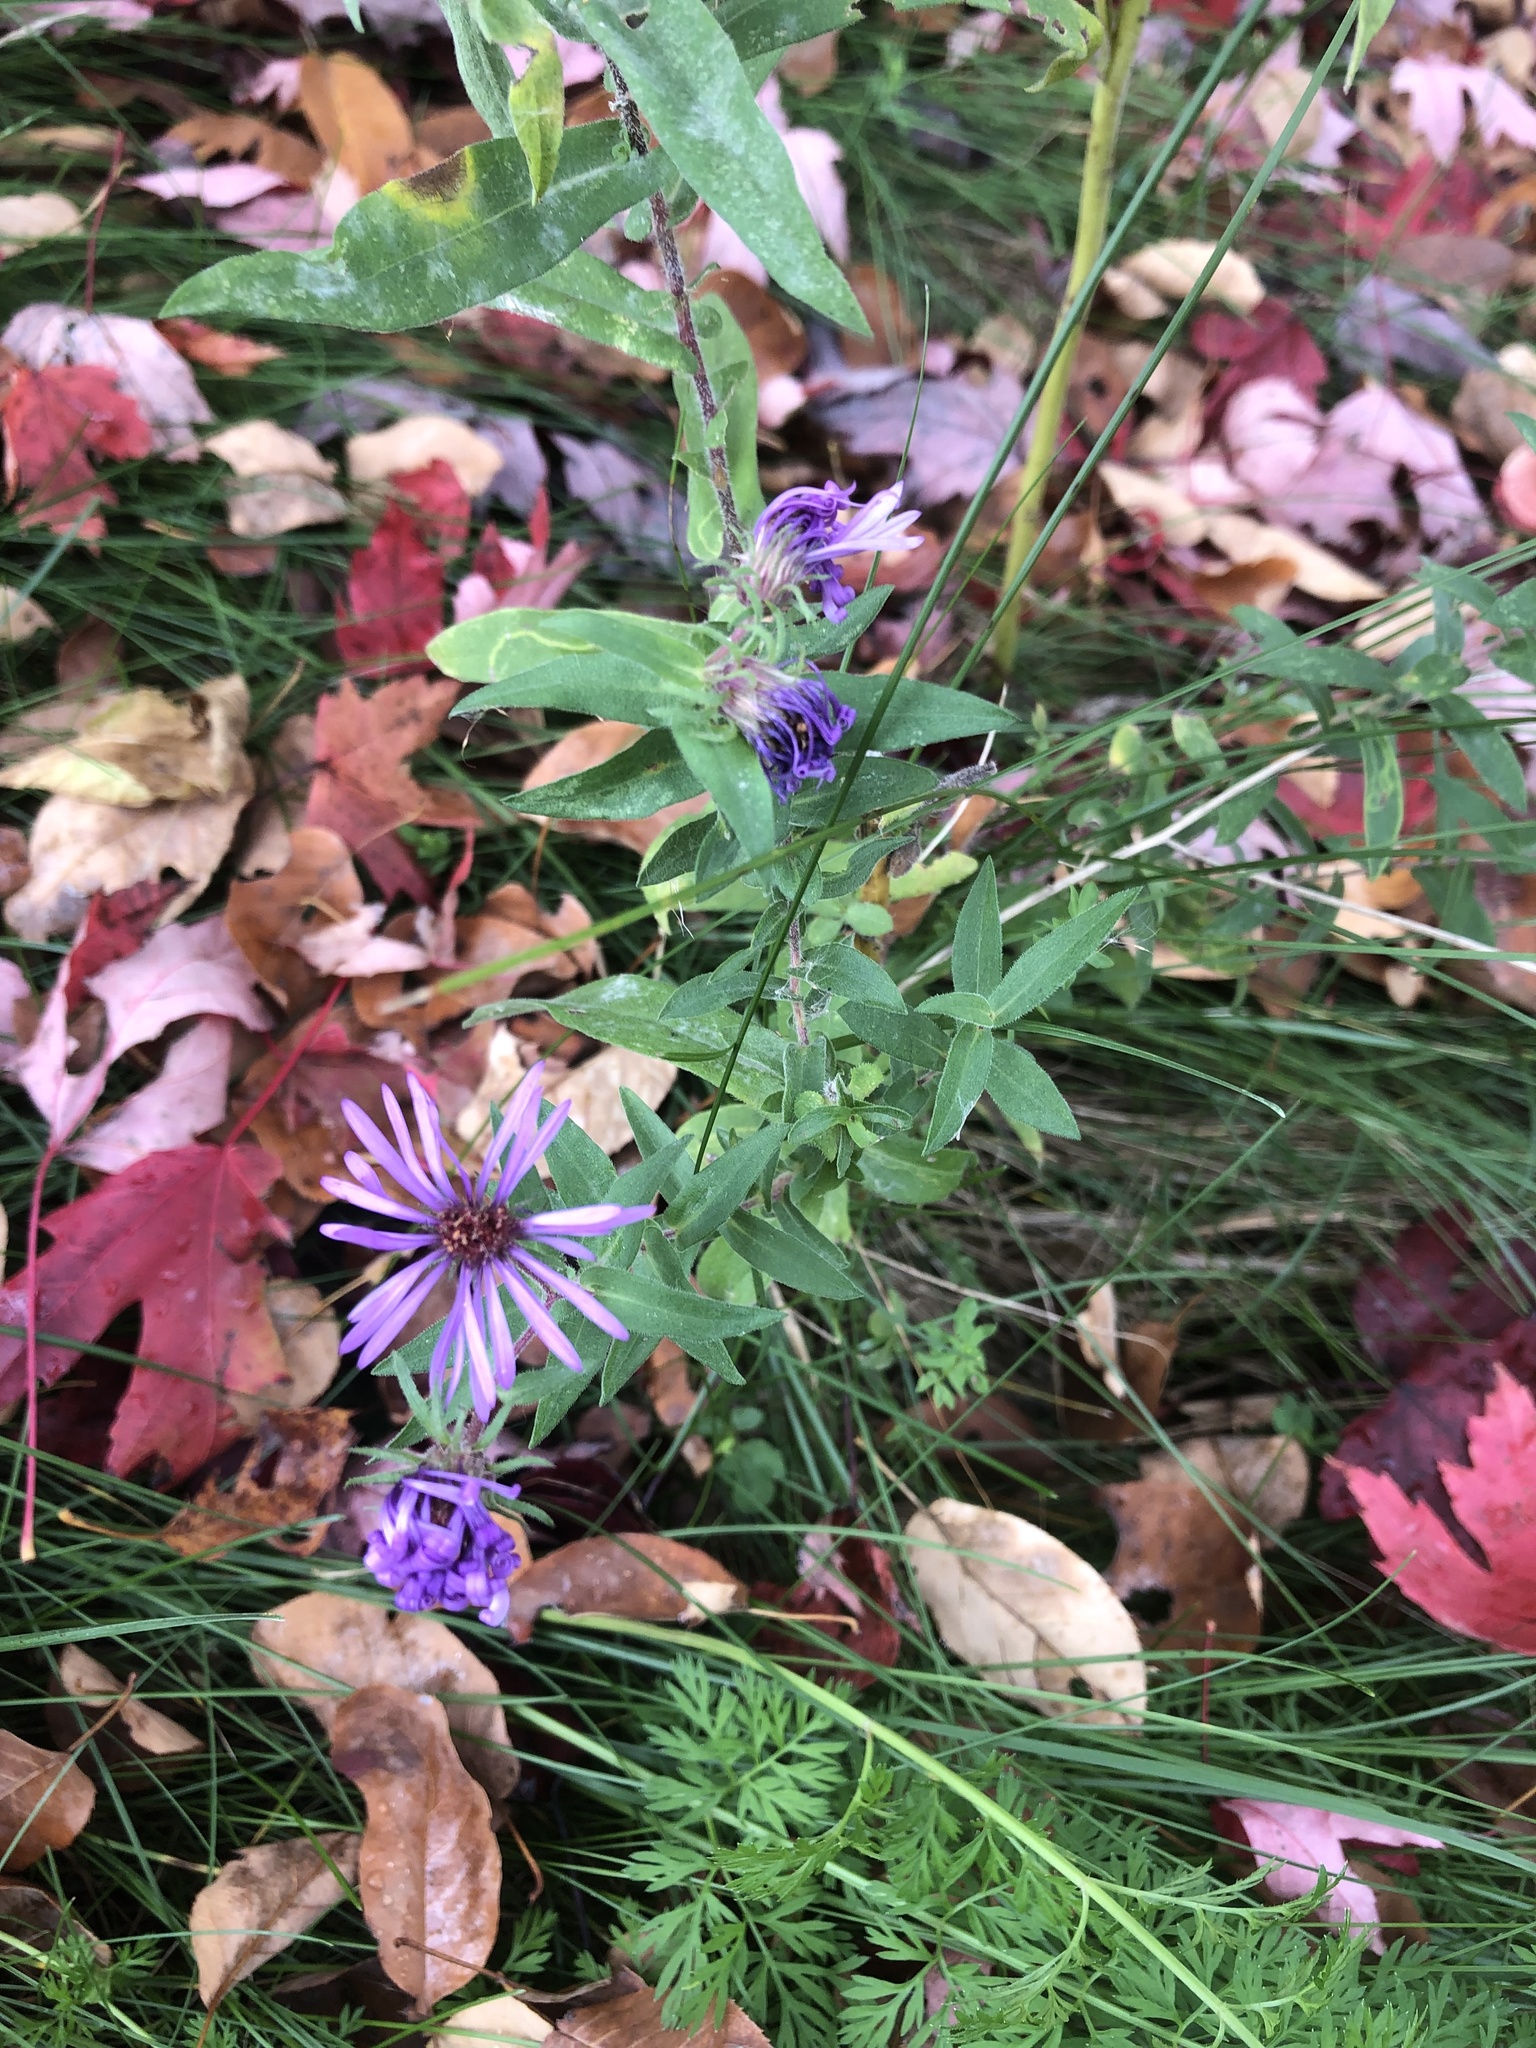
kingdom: Plantae
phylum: Tracheophyta
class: Magnoliopsida
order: Asterales
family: Asteraceae
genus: Symphyotrichum
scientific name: Symphyotrichum novae-angliae
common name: Michaelmas daisy
